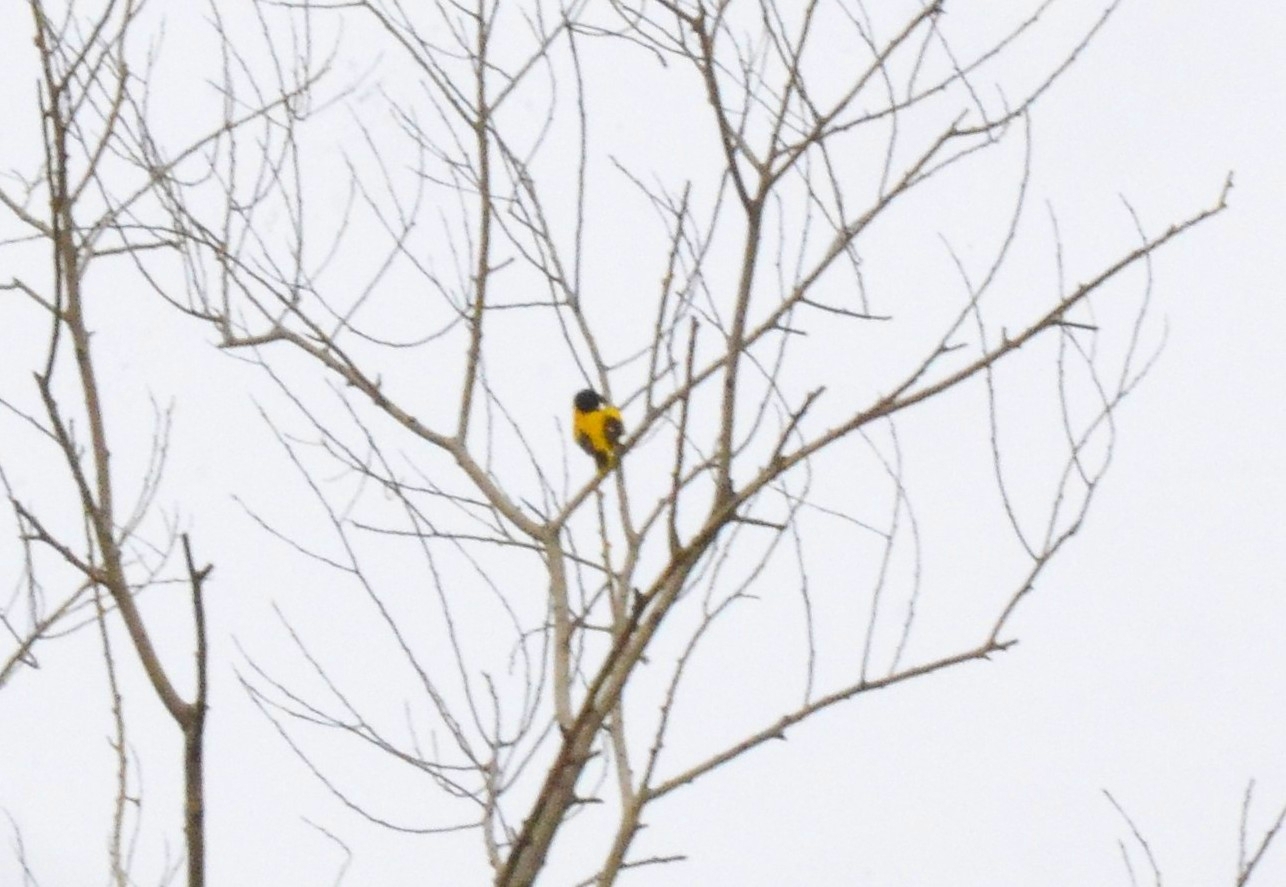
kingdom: Animalia
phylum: Chordata
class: Aves
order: Passeriformes
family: Oriolidae
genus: Oriolus
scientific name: Oriolus xanthornus
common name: Black-hooded oriole
